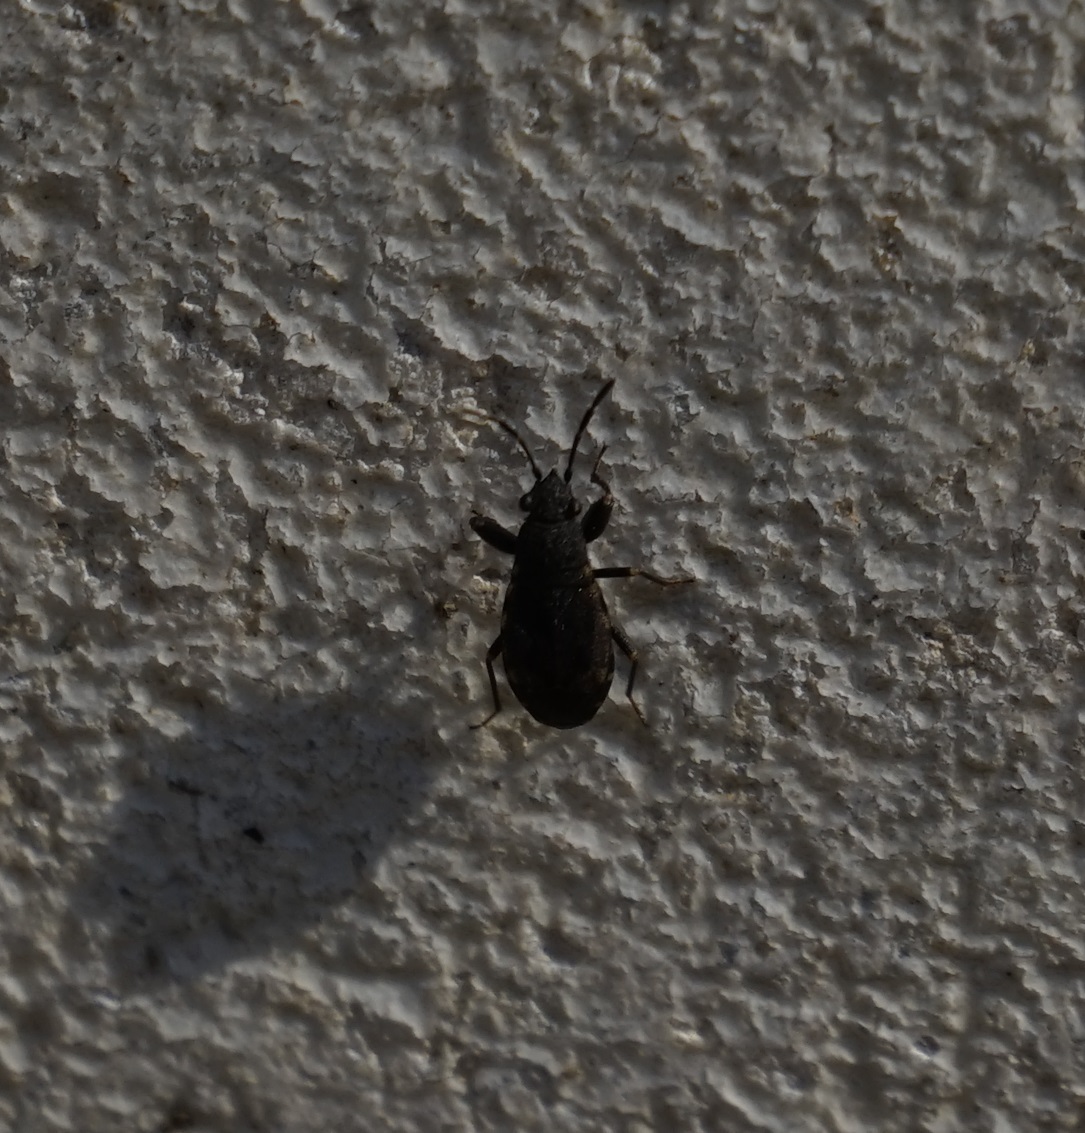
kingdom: Animalia
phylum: Arthropoda
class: Insecta
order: Hemiptera
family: Rhyparochromidae
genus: Porander
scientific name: Porander scudderi
